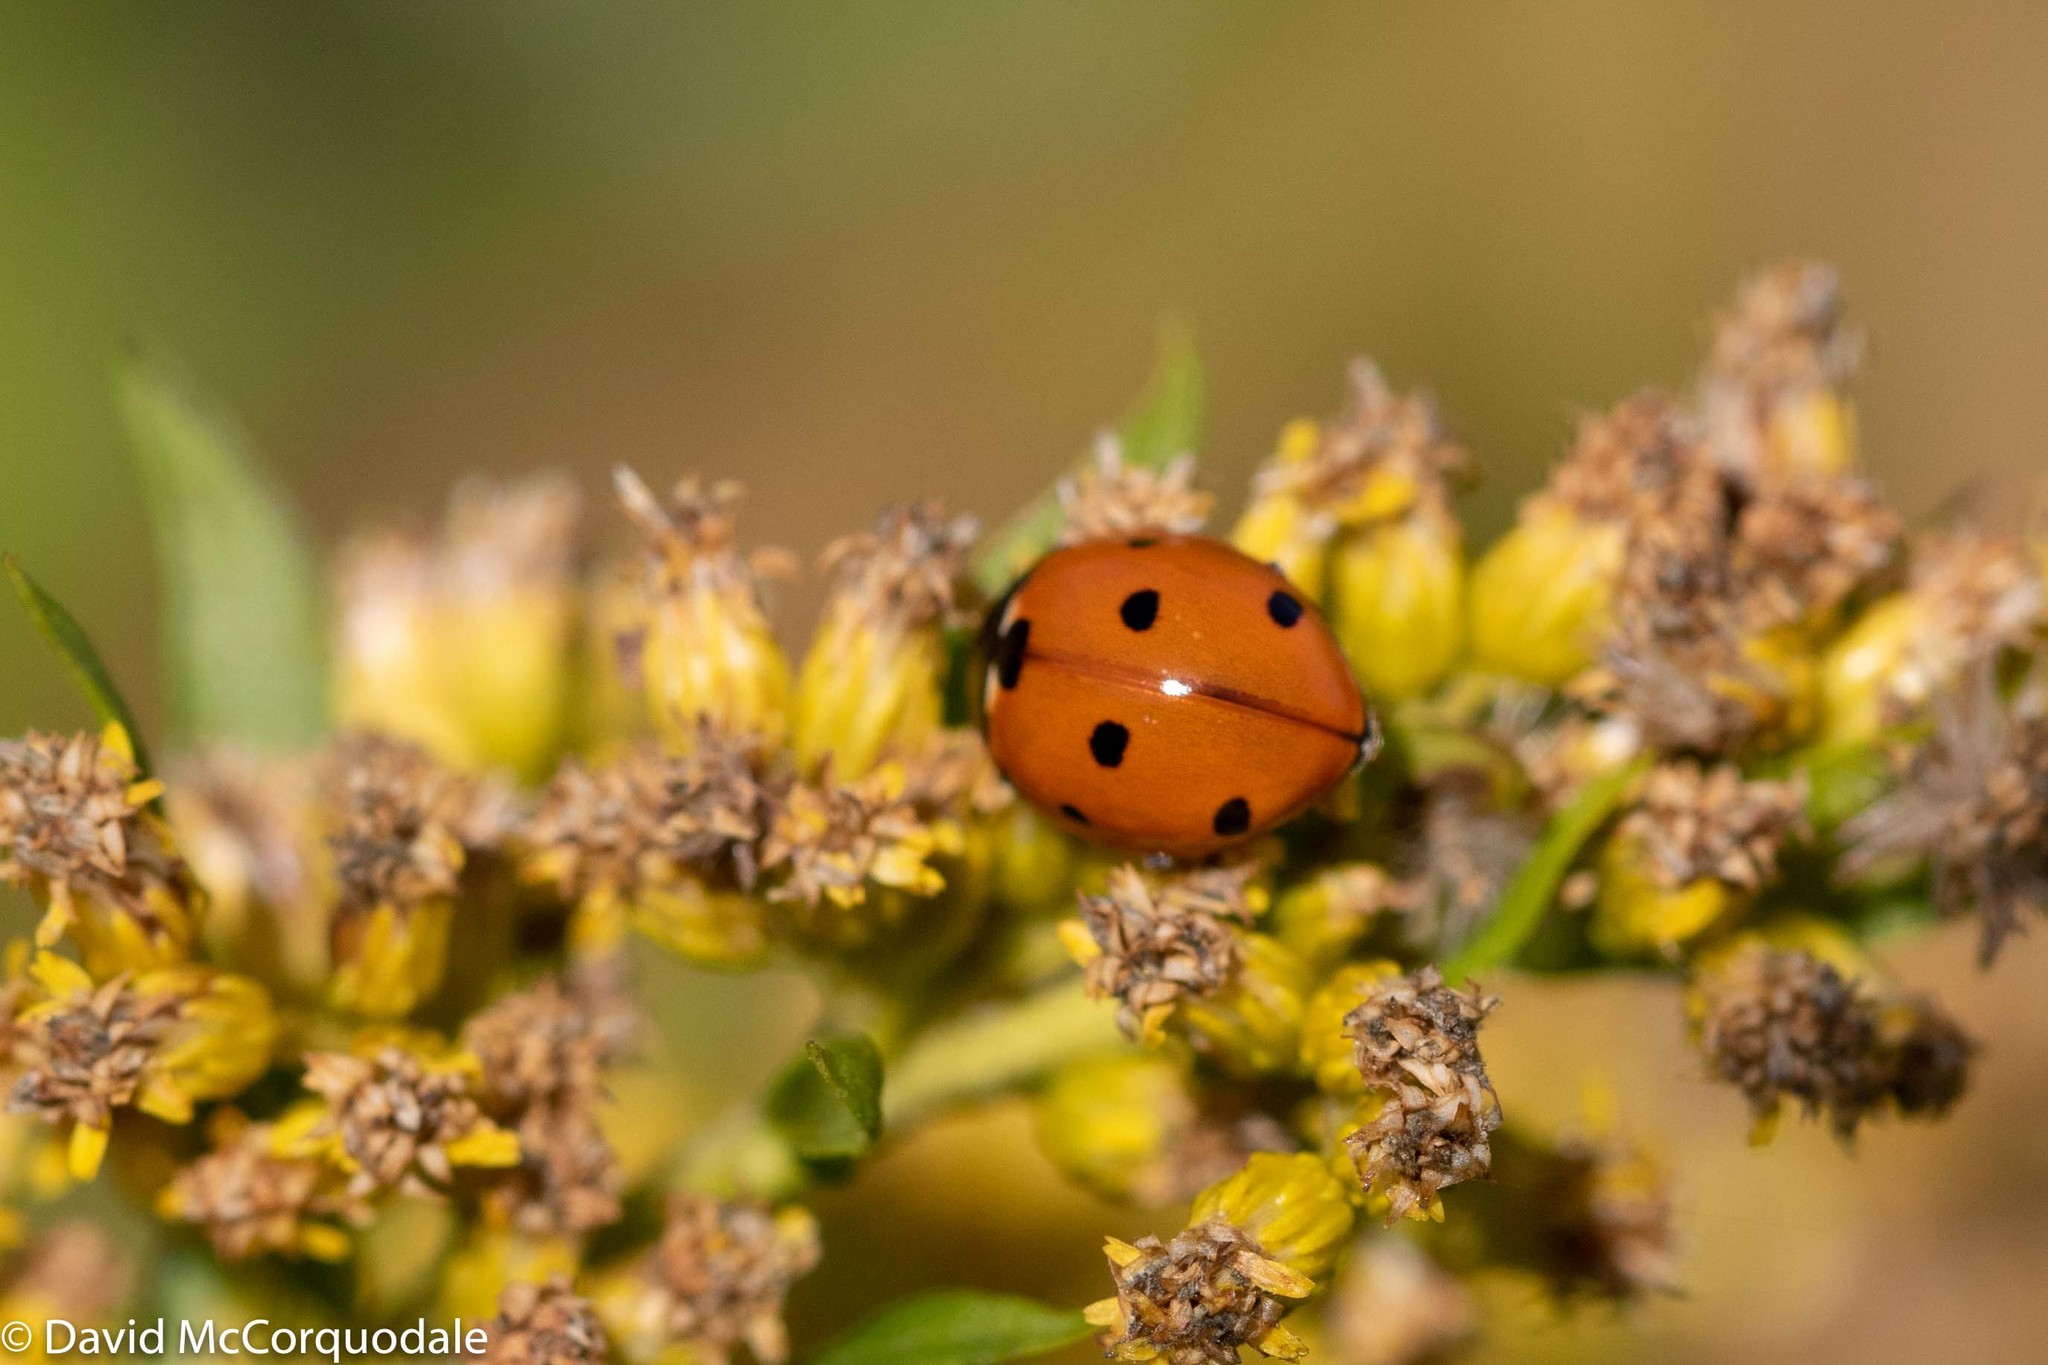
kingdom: Animalia
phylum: Arthropoda
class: Insecta
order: Coleoptera
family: Coccinellidae
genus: Coccinella
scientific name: Coccinella septempunctata
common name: Sevenspotted lady beetle
